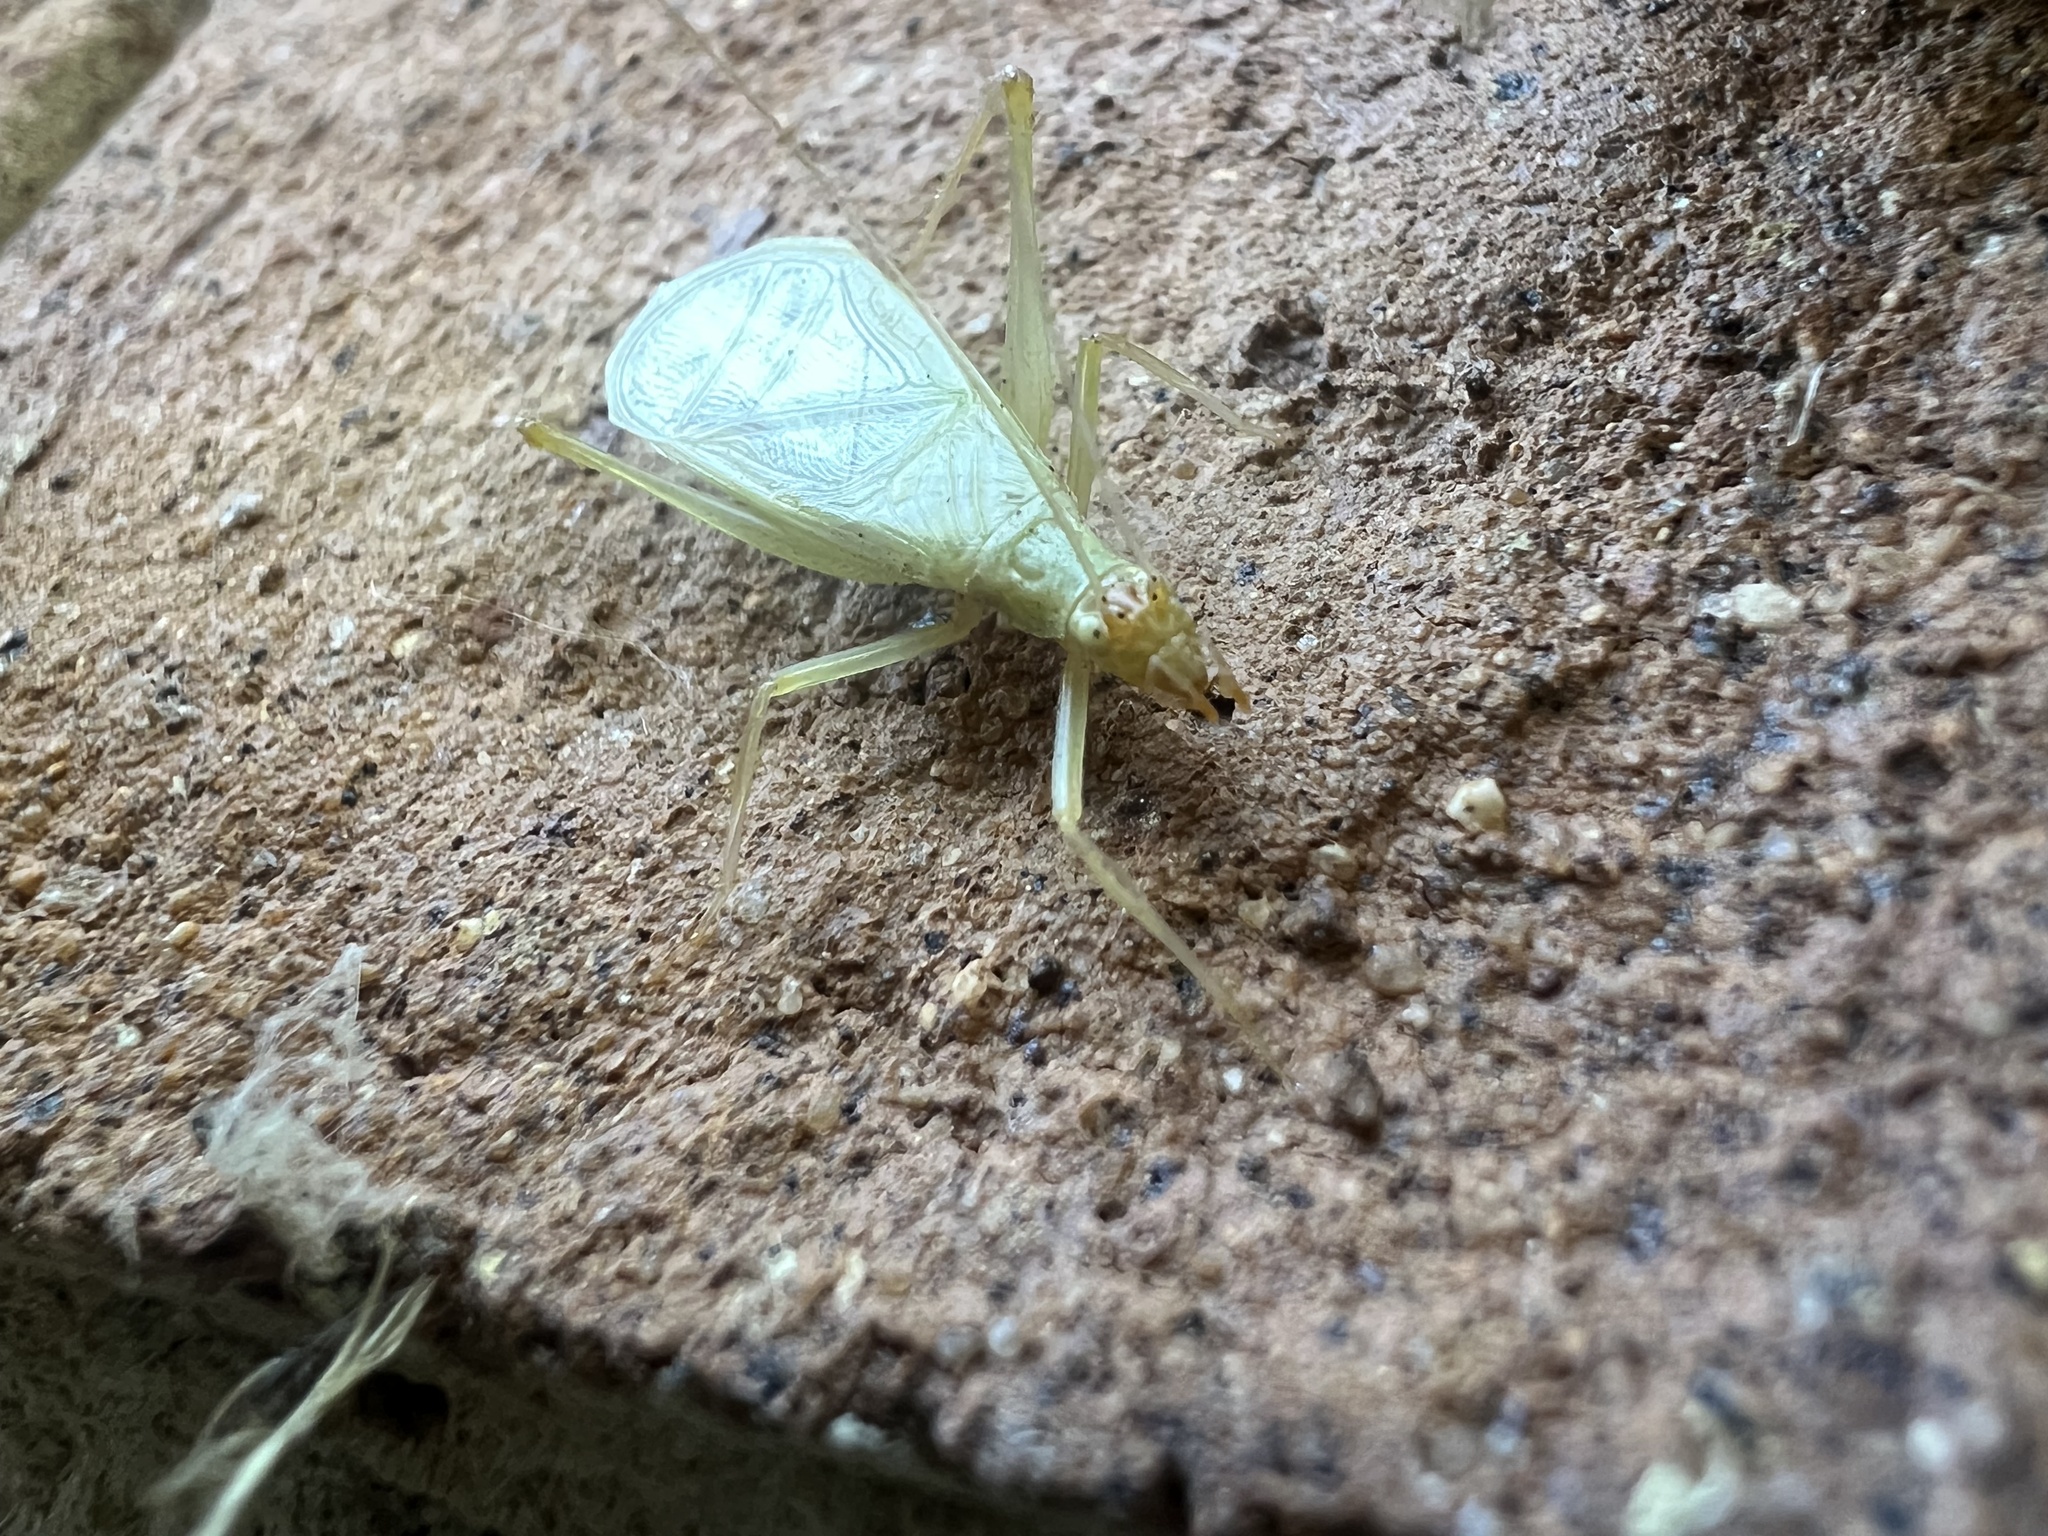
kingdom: Animalia
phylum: Arthropoda
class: Insecta
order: Orthoptera
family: Gryllidae
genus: Oecanthus
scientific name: Oecanthus fultoni
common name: Snowy tree cricket
